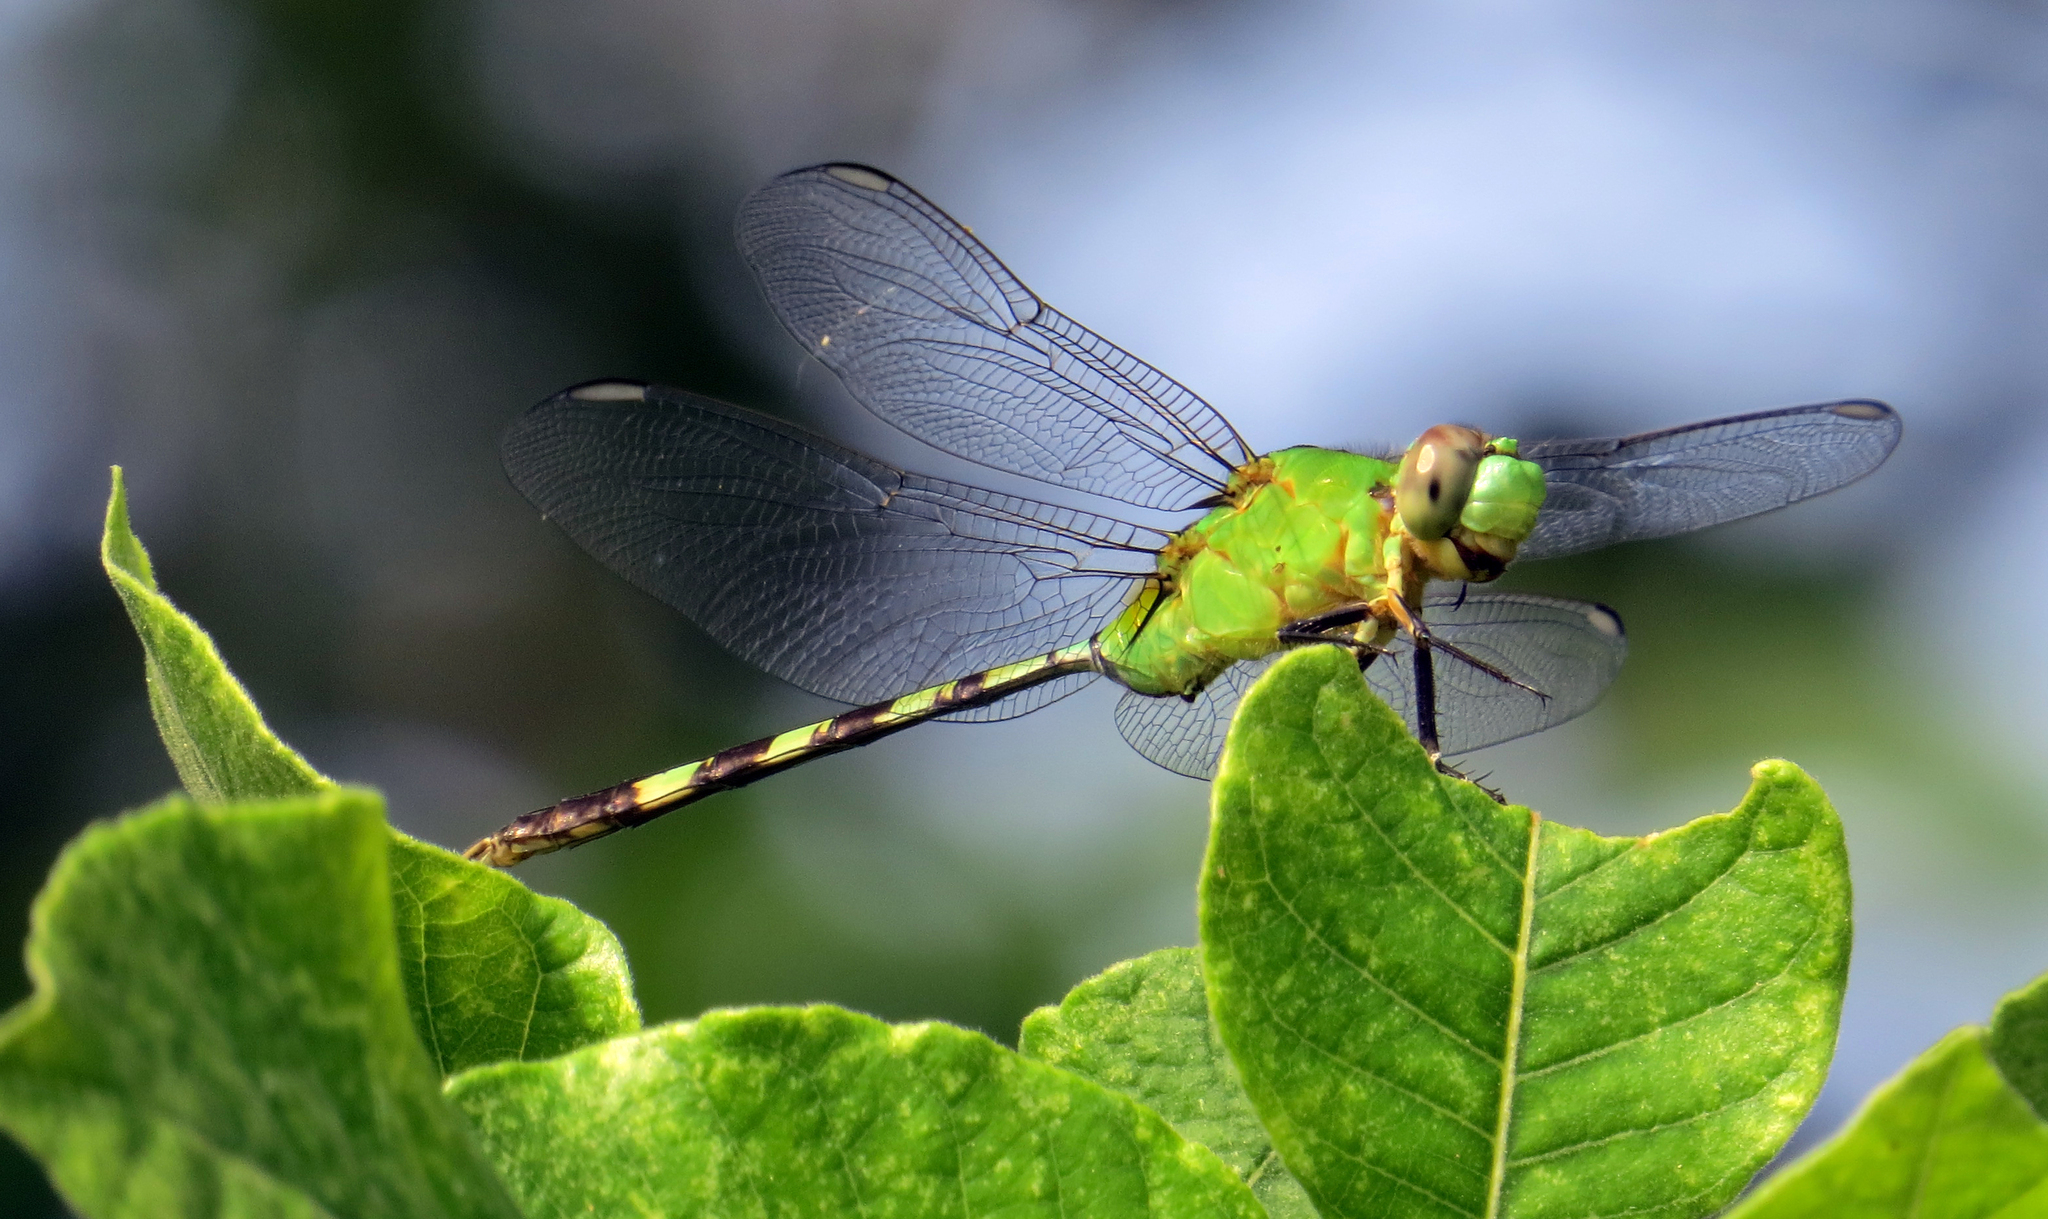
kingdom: Animalia
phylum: Arthropoda
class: Insecta
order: Odonata
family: Libellulidae
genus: Erythemis
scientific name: Erythemis vesiculosa
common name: Great pondhawk
